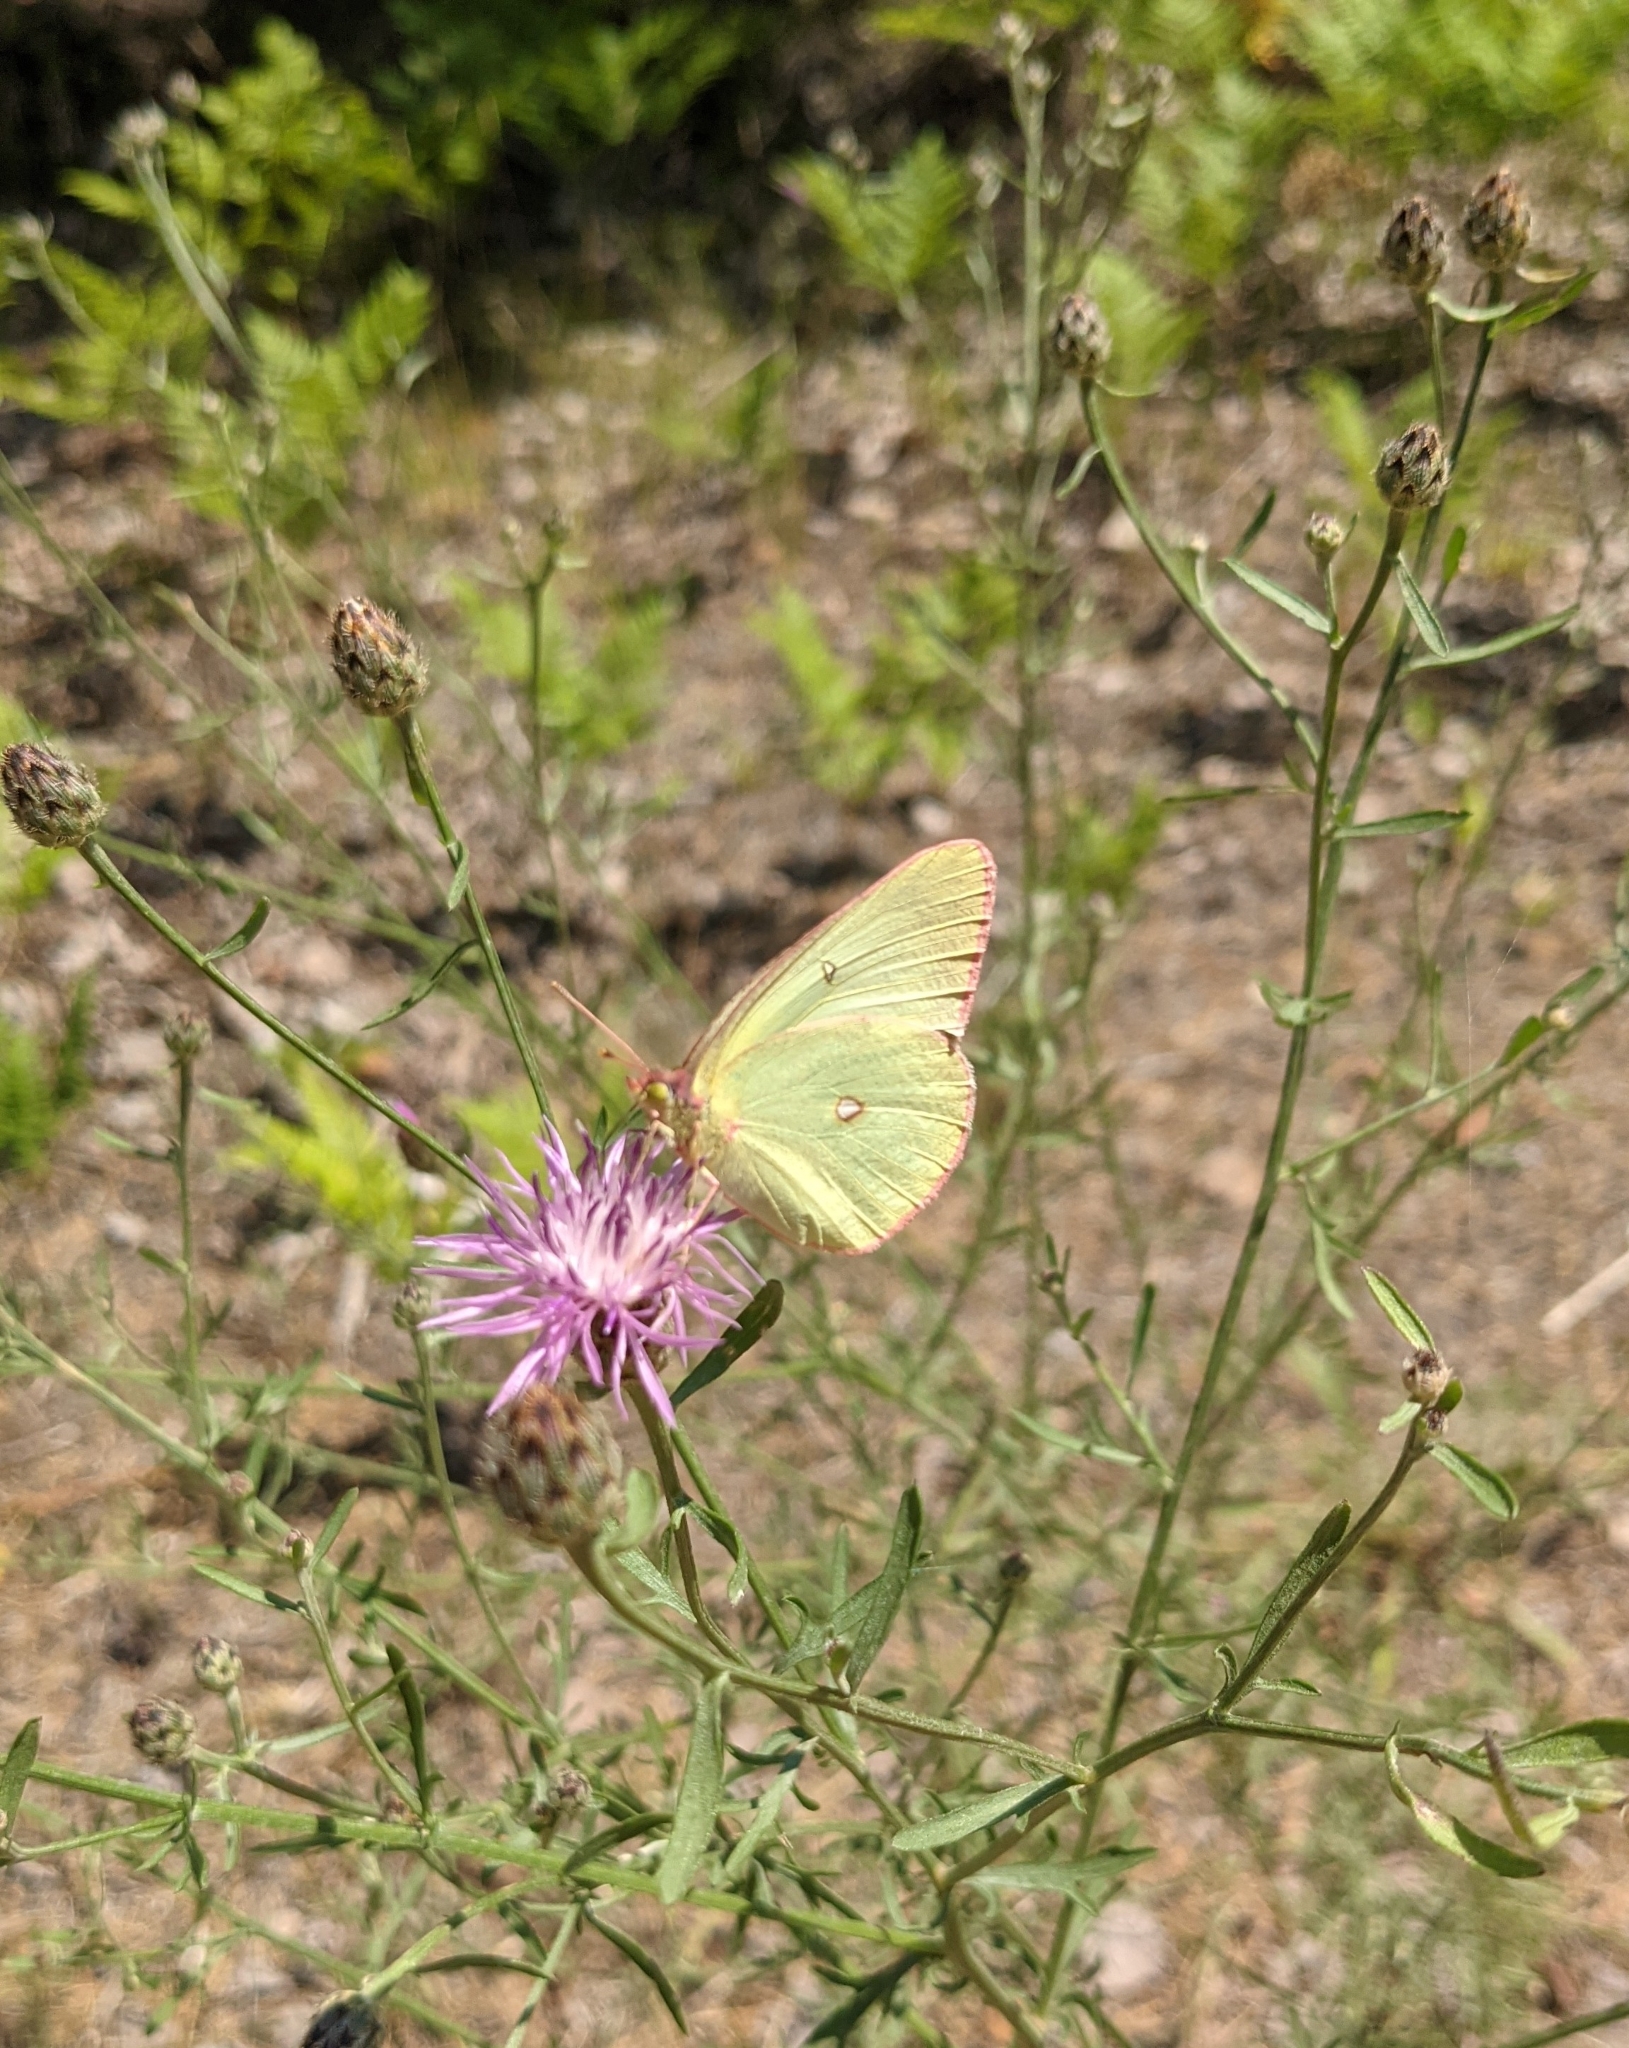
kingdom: Animalia
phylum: Arthropoda
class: Insecta
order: Lepidoptera
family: Pieridae
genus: Colias
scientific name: Colias interior
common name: Pink-edged sulphur
